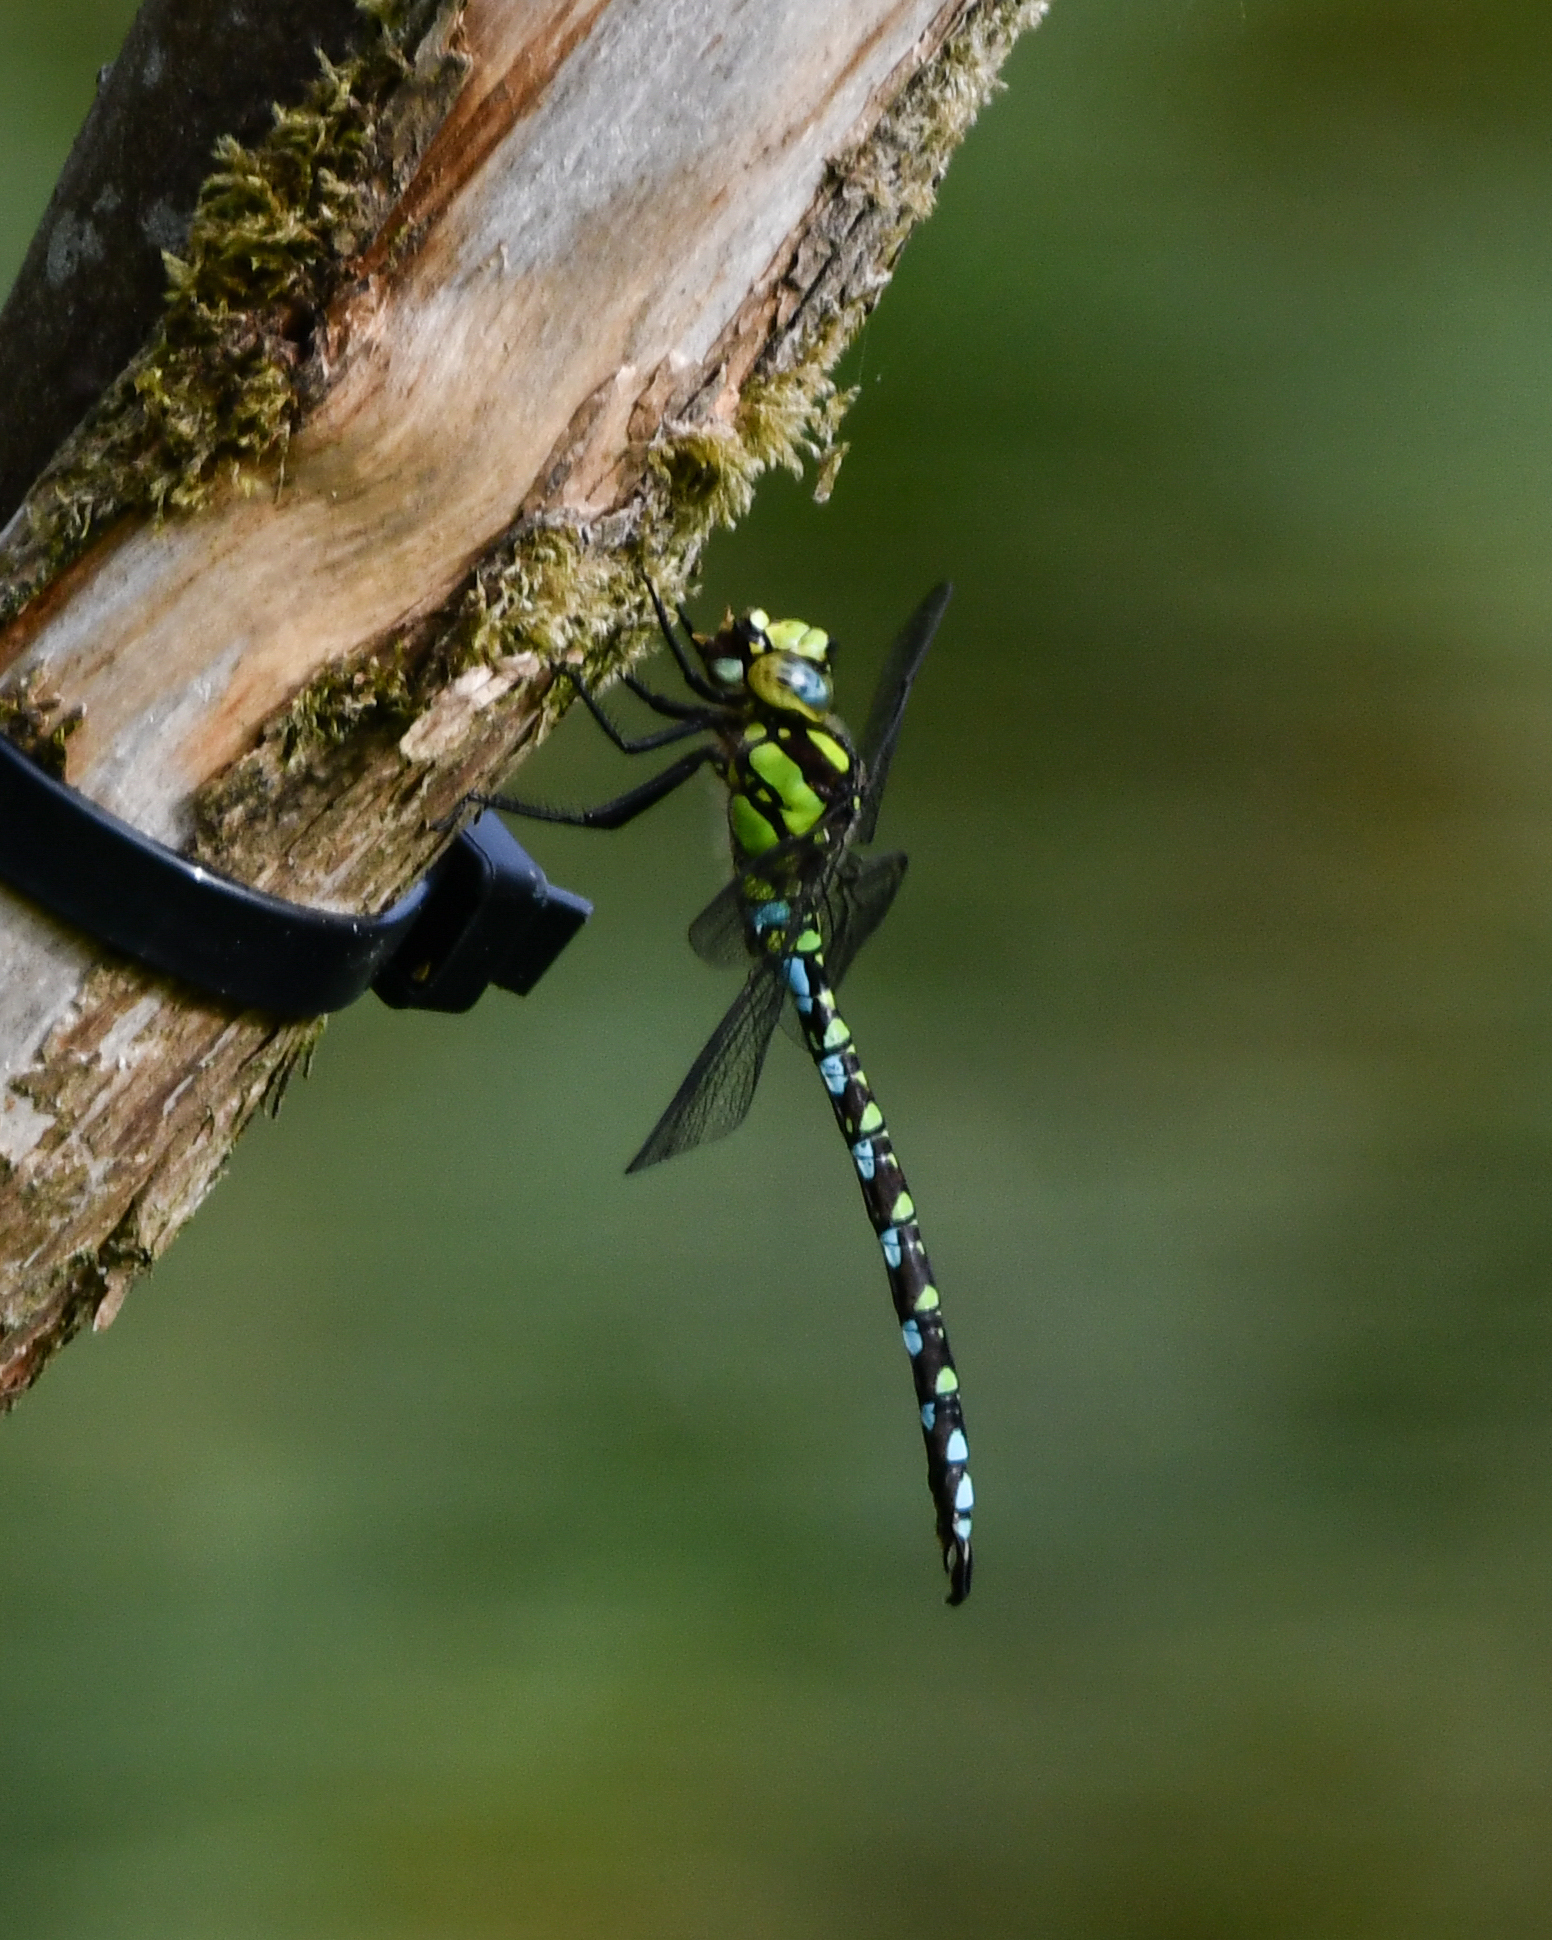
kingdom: Animalia
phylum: Arthropoda
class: Insecta
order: Odonata
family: Aeshnidae
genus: Aeshna
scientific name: Aeshna cyanea
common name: Southern hawker
